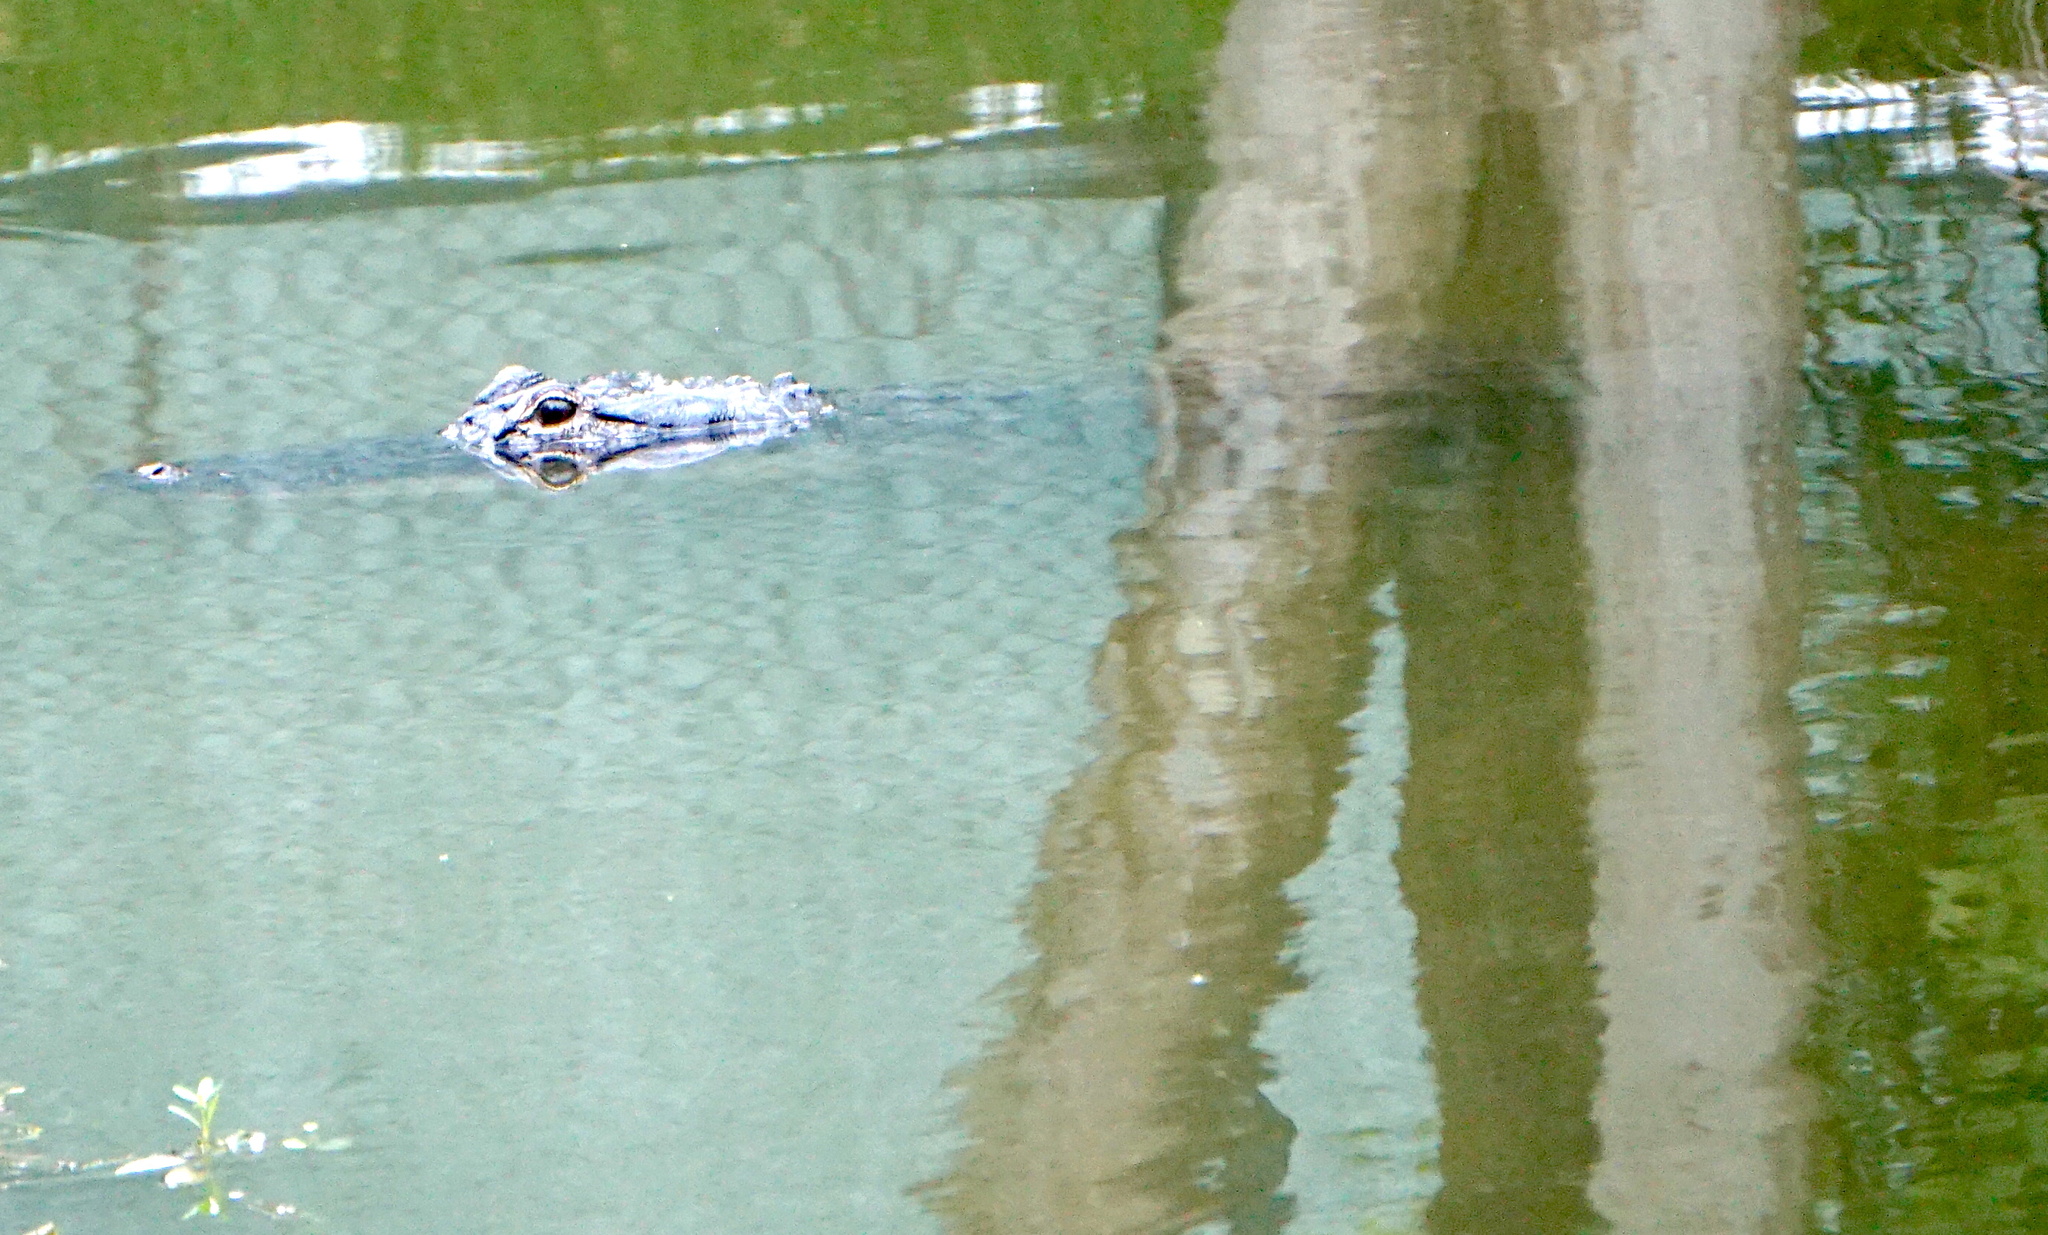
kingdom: Animalia
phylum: Chordata
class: Crocodylia
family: Alligatoridae
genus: Alligator
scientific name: Alligator mississippiensis
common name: American alligator
